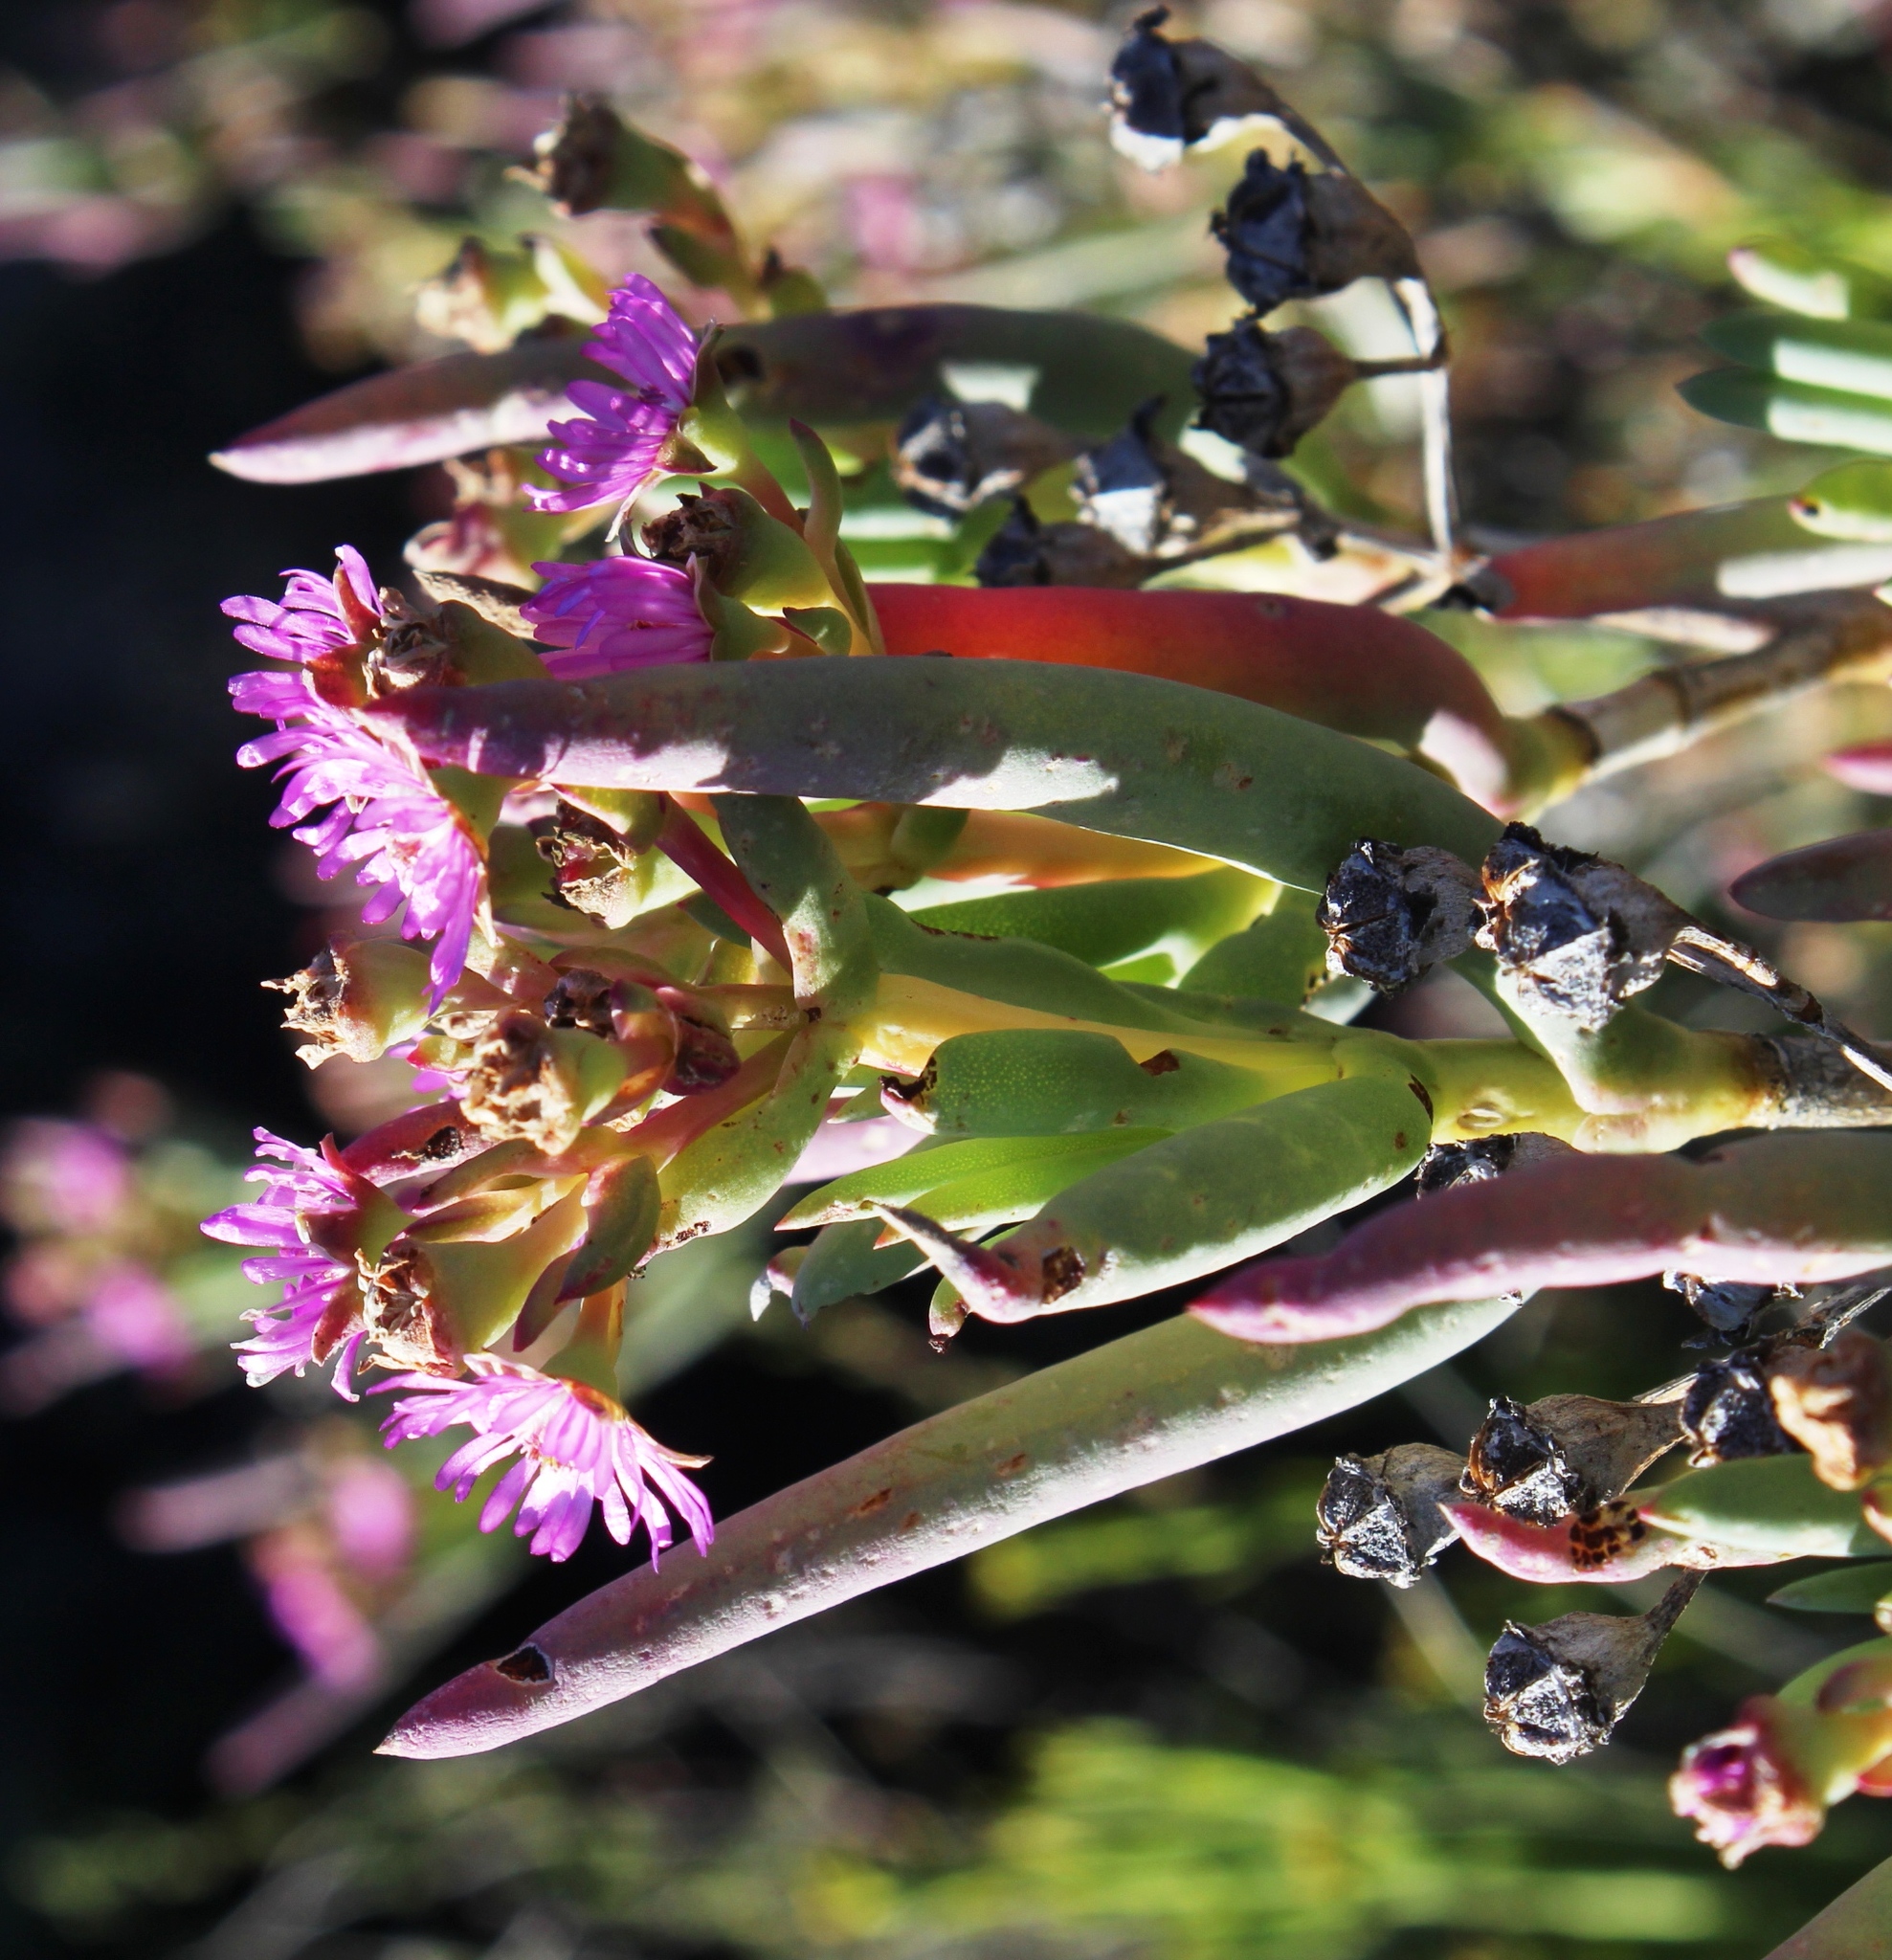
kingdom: Plantae
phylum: Tracheophyta
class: Magnoliopsida
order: Caryophyllales
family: Aizoaceae
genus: Ruschia
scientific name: Ruschia muelleri
